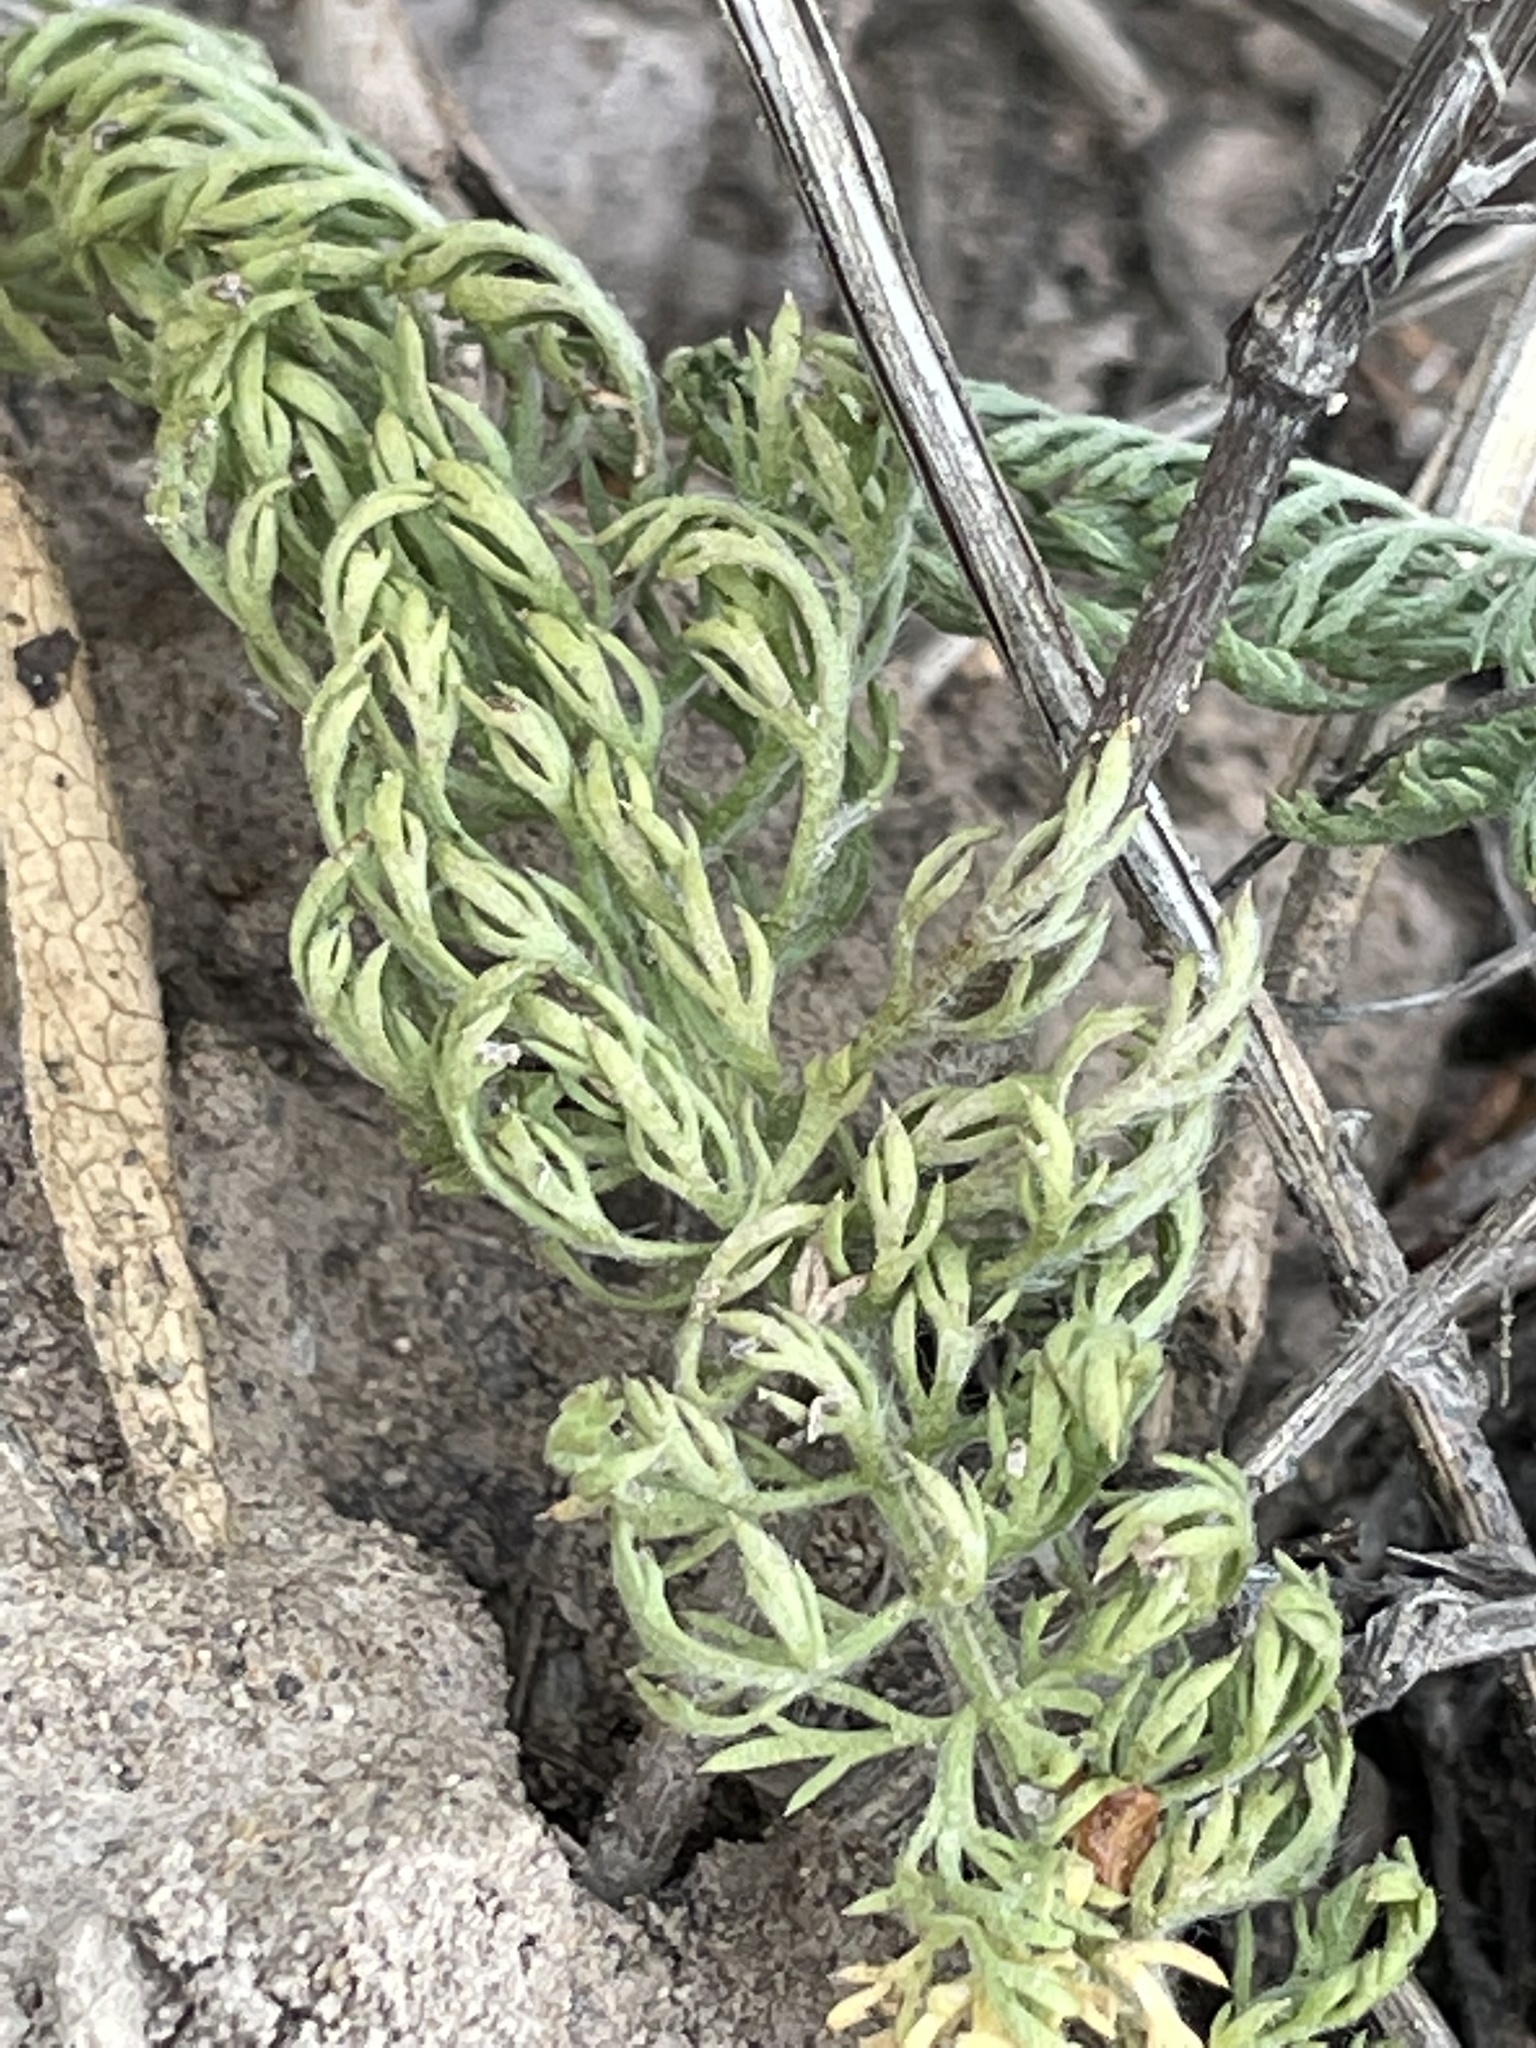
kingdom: Plantae
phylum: Tracheophyta
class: Magnoliopsida
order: Asterales
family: Asteraceae
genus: Achillea
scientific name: Achillea millefolium
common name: Yarrow
